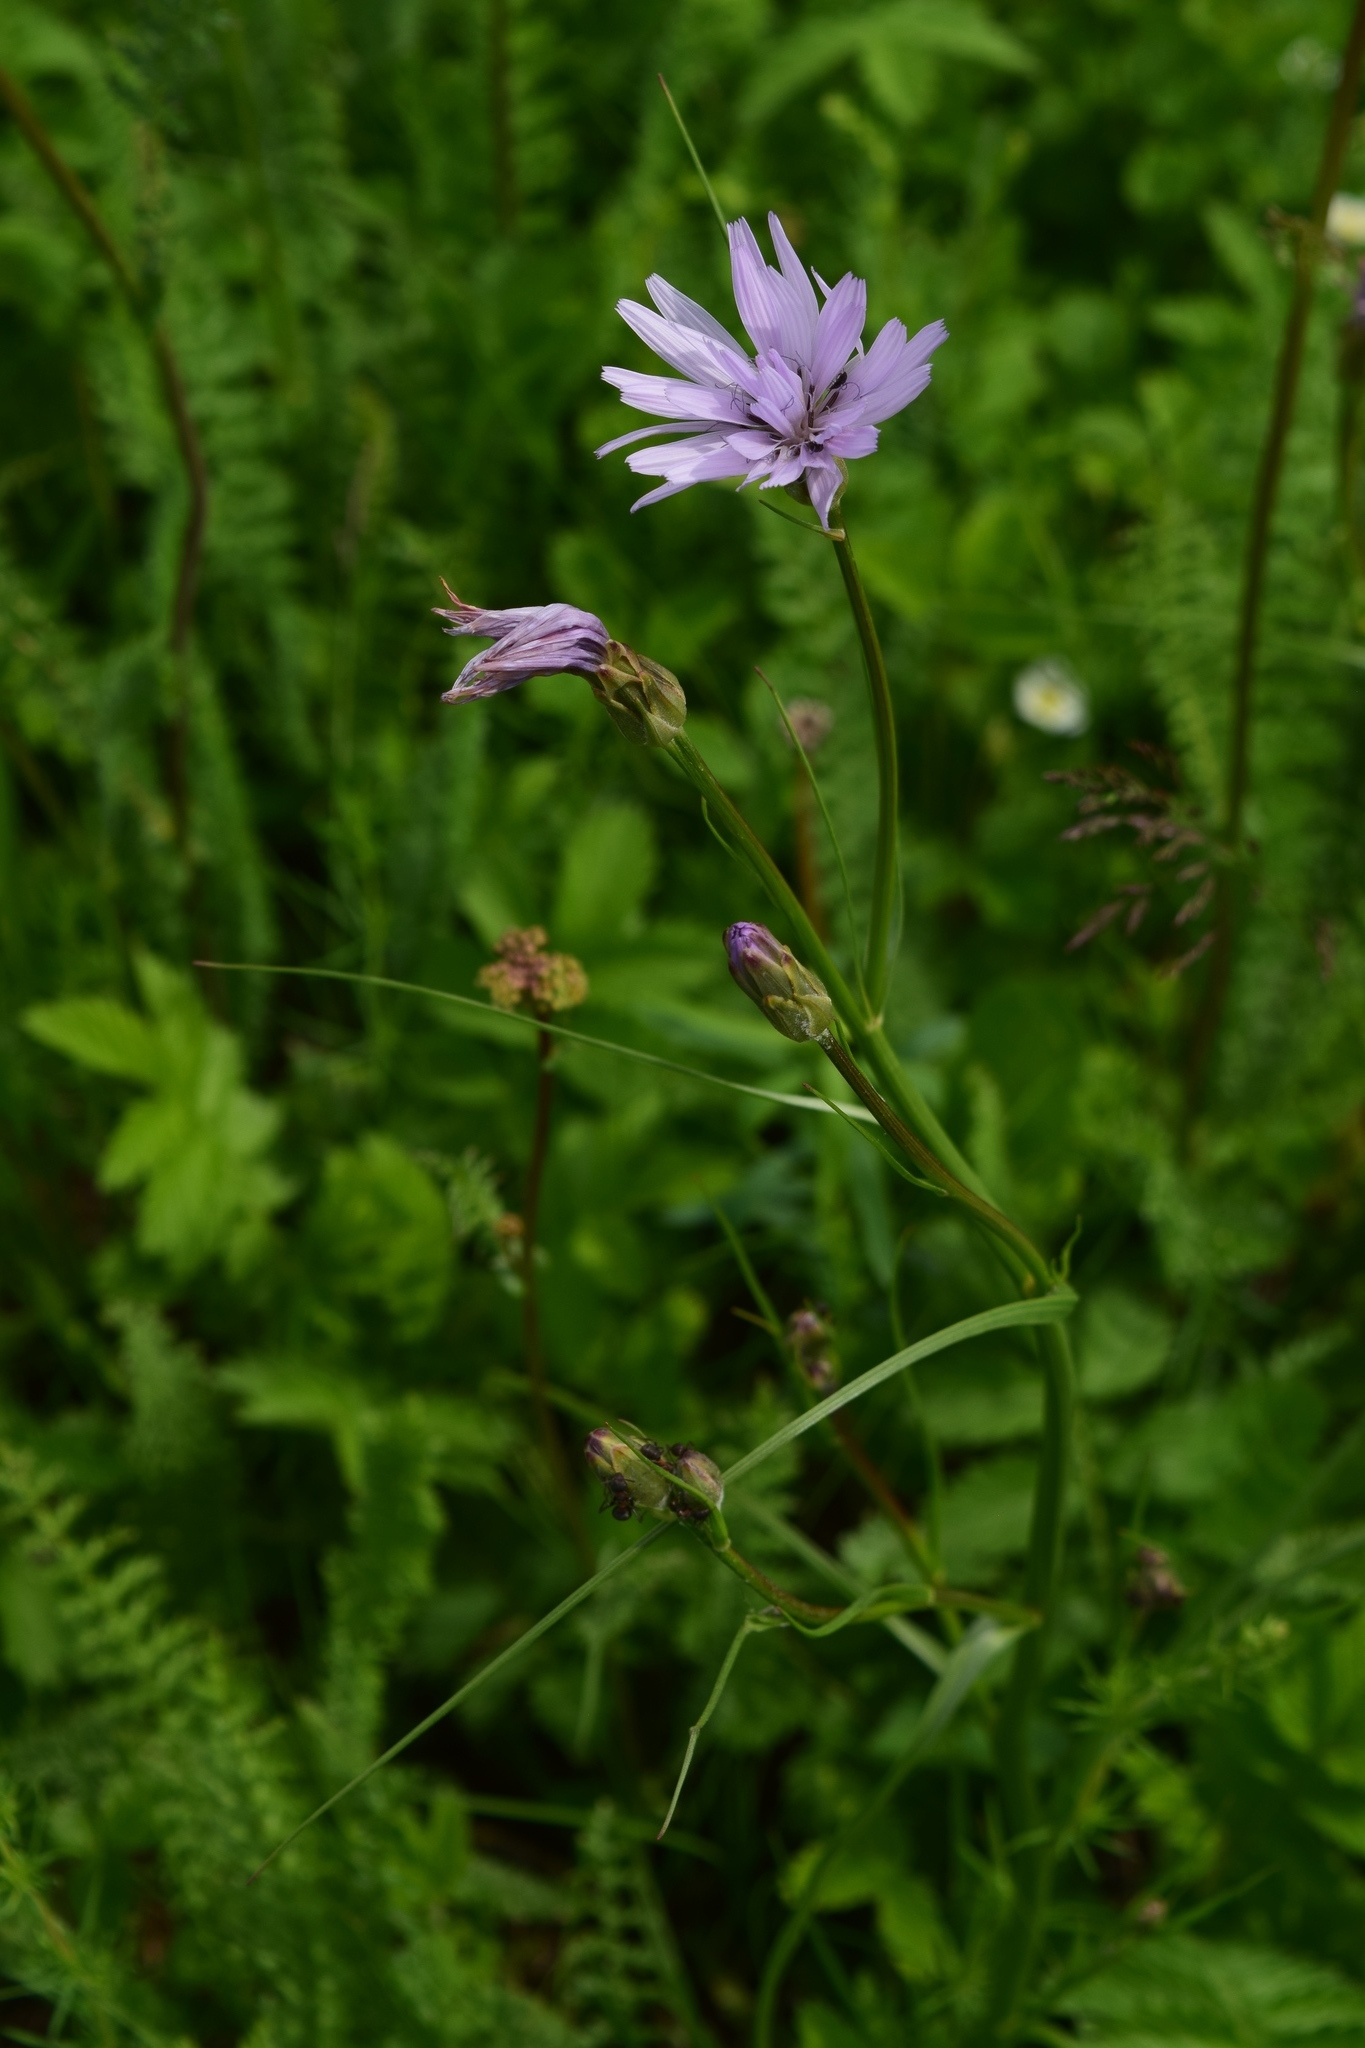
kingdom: Plantae
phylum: Tracheophyta
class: Magnoliopsida
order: Asterales
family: Asteraceae
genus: Scorzonera
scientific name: Scorzonera purpurea
